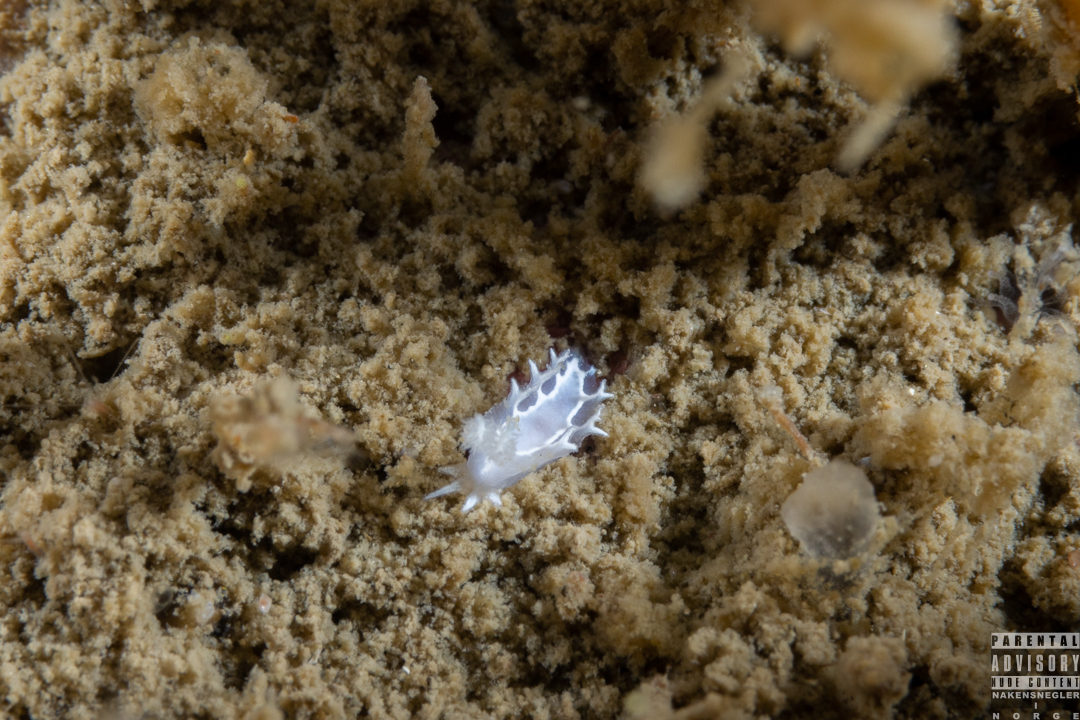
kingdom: Animalia
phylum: Mollusca
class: Gastropoda
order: Nudibranchia
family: Tritoniidae
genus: Duvaucelia
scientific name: Duvaucelia lineata
